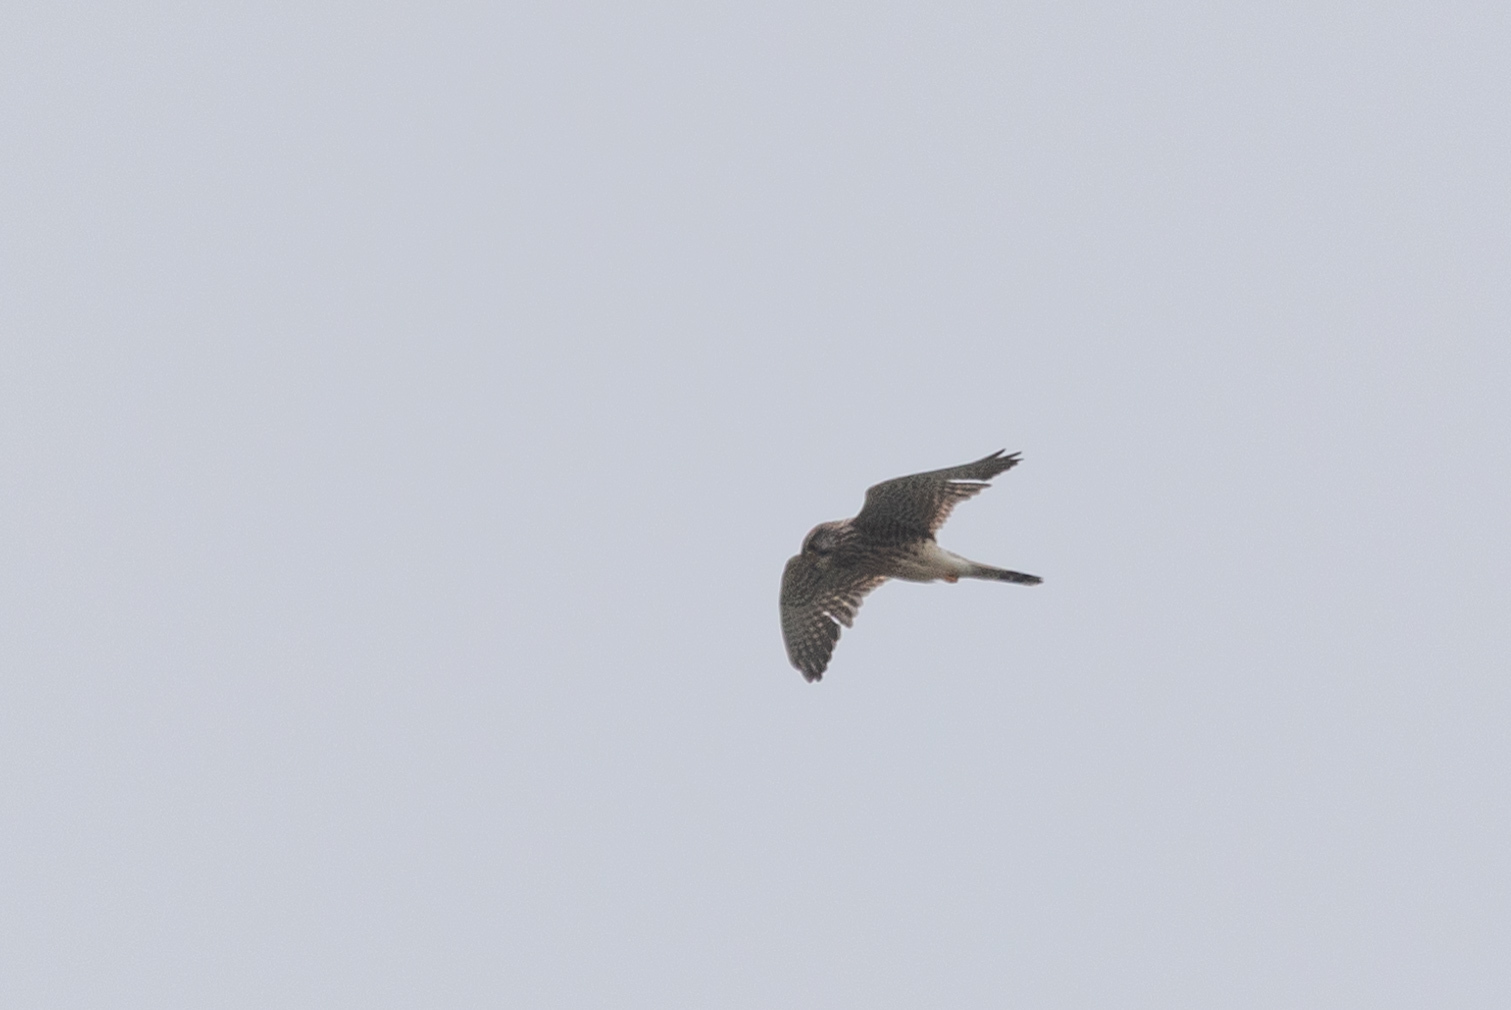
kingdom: Animalia
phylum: Chordata
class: Aves
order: Falconiformes
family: Falconidae
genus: Falco
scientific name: Falco tinnunculus
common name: Common kestrel
